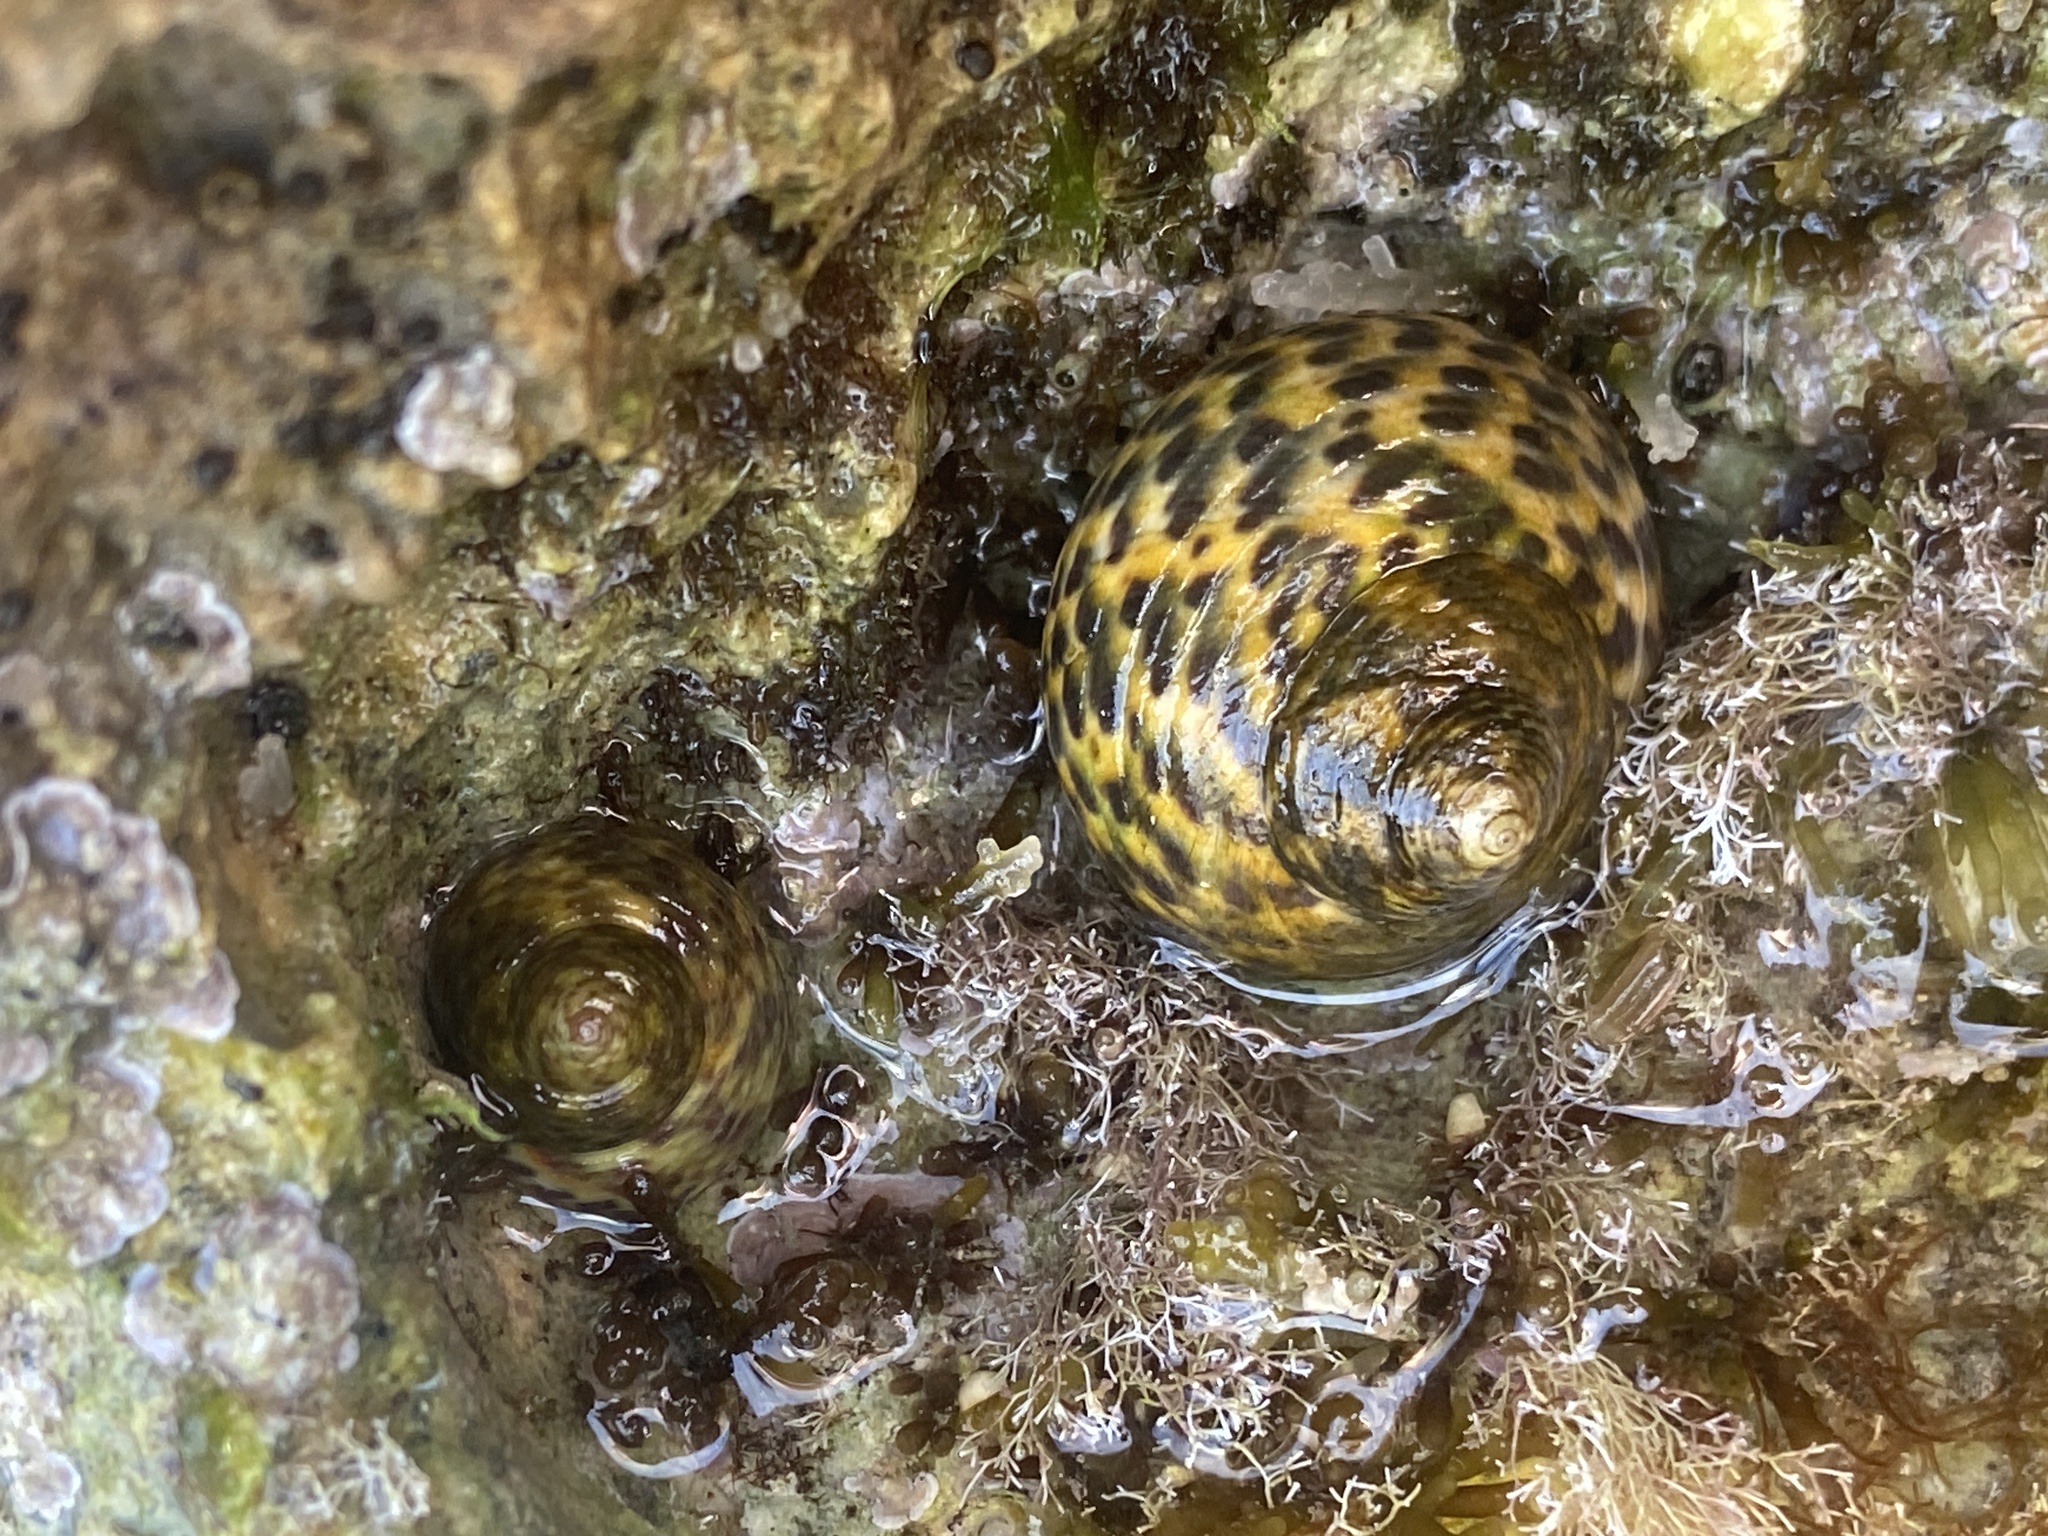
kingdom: Animalia
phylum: Mollusca
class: Gastropoda
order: Trochida
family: Trochidae
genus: Phorcus
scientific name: Phorcus turbinatus
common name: Turbinate monodont
